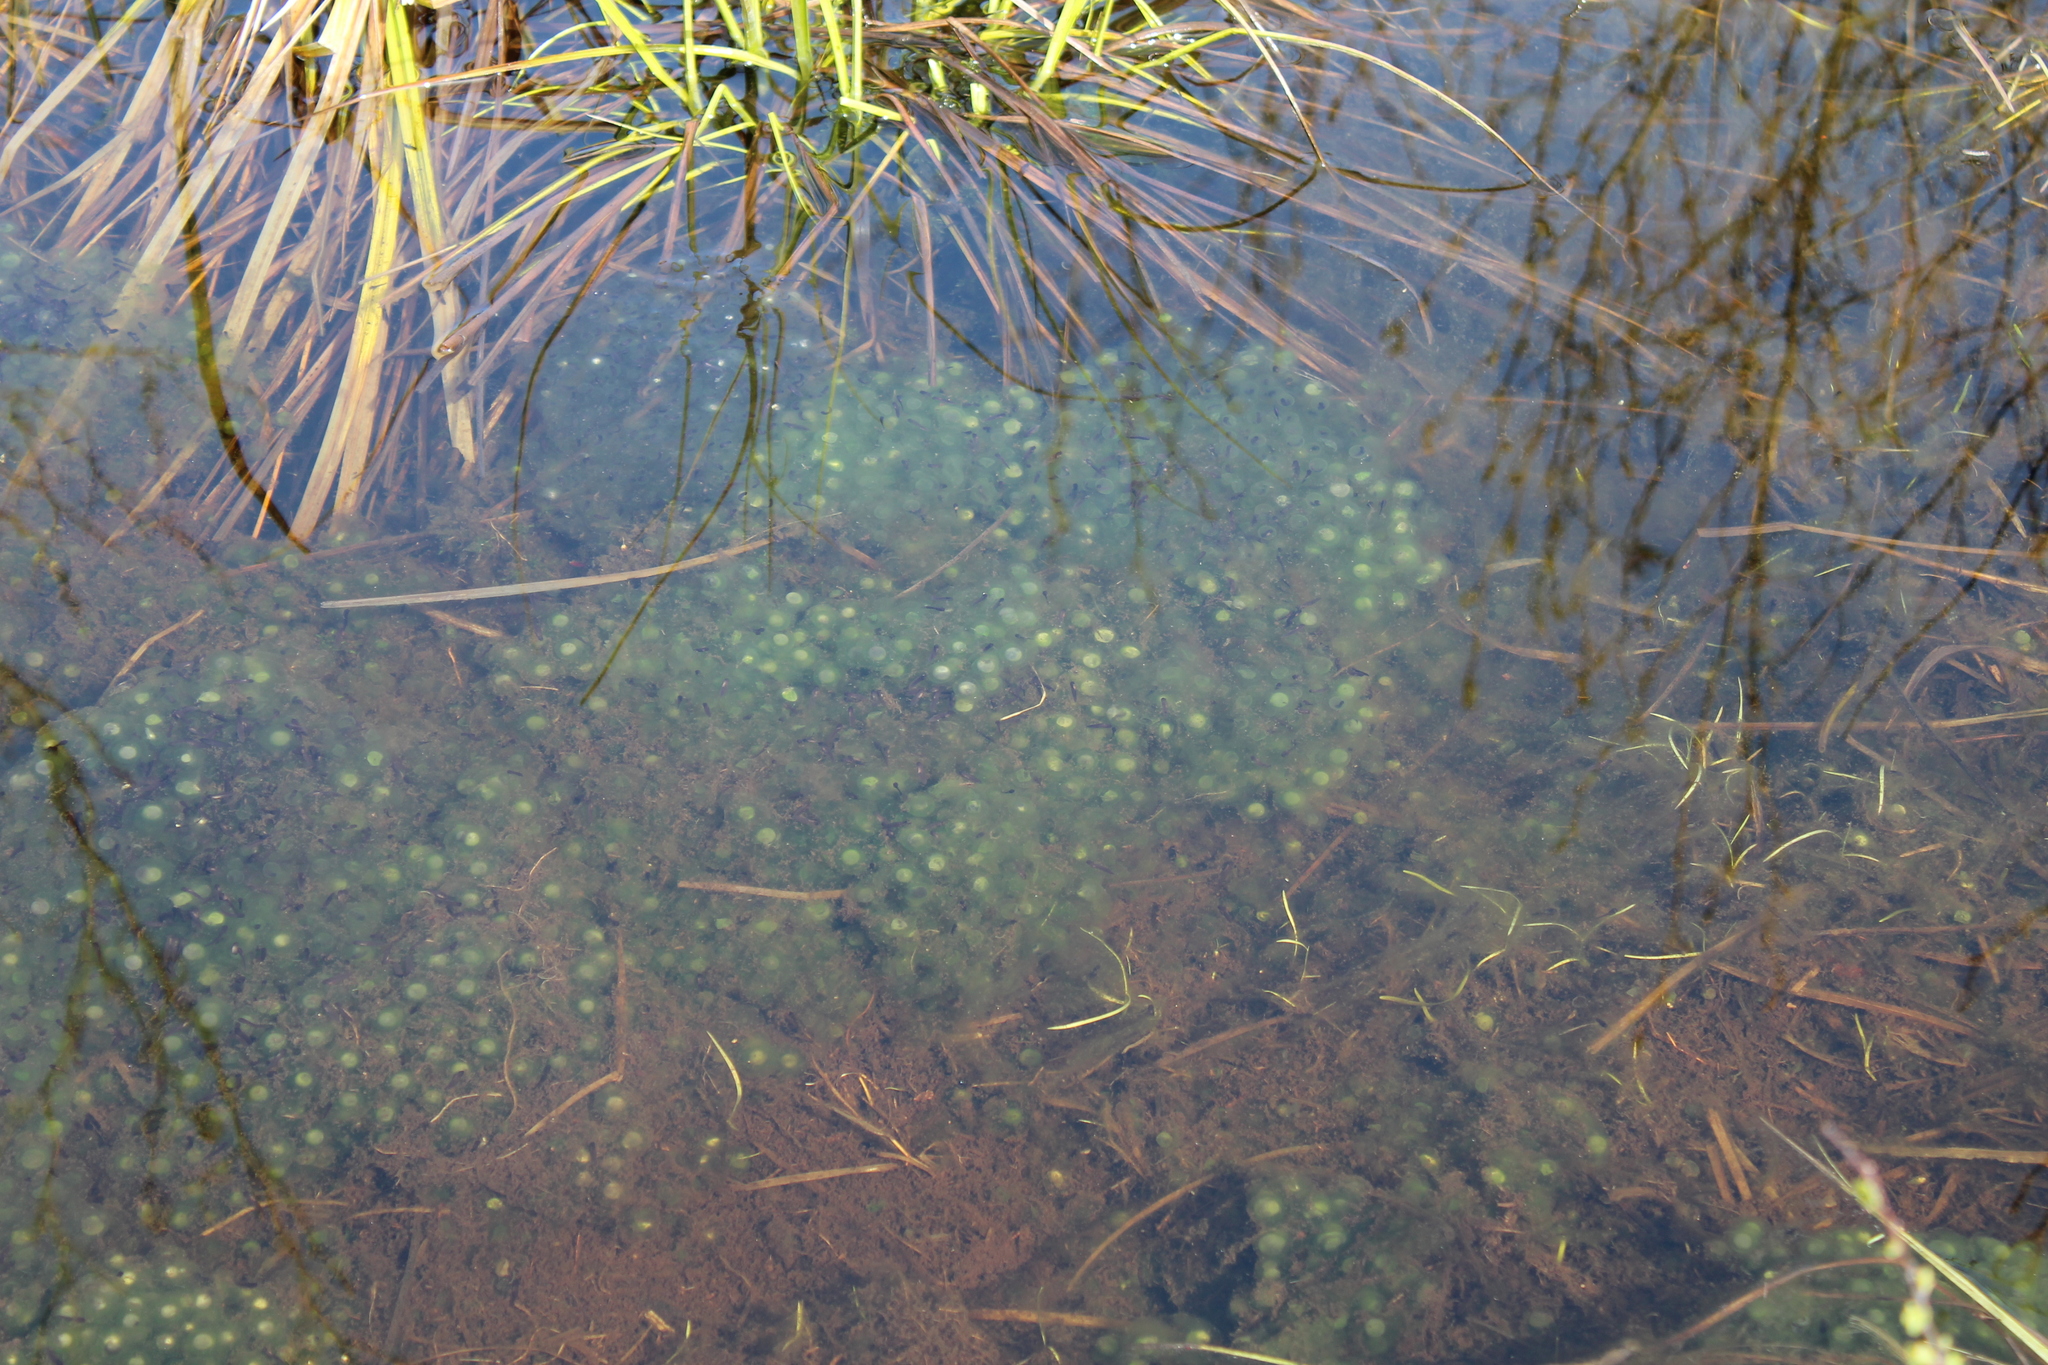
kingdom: Animalia
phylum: Chordata
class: Amphibia
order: Anura
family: Ranidae
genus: Lithobates
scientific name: Lithobates sylvaticus
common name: Wood frog
